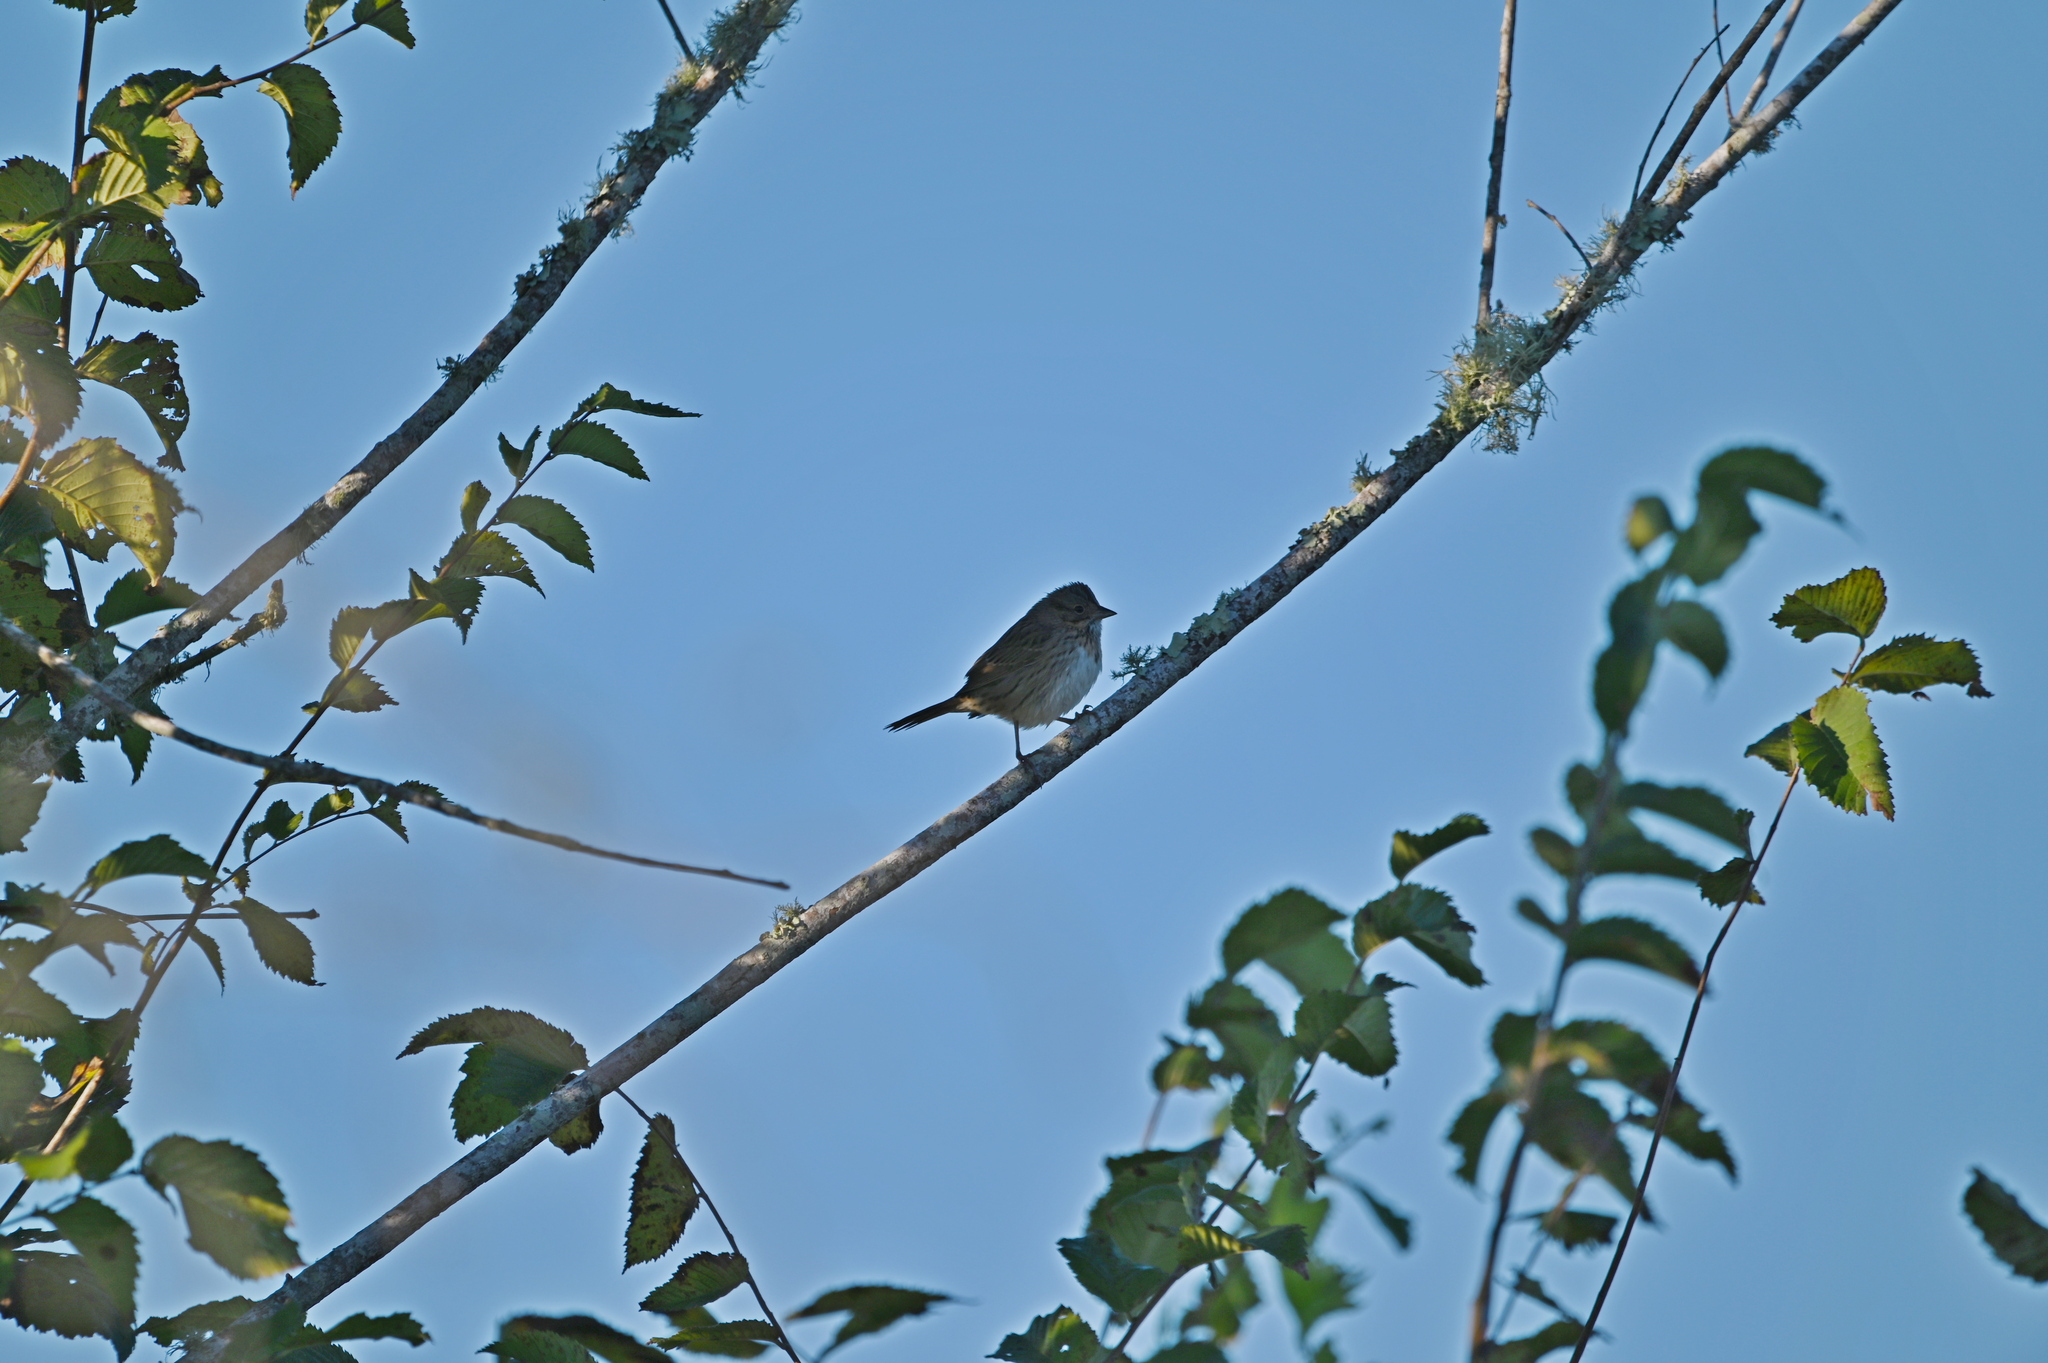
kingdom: Animalia
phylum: Chordata
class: Aves
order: Passeriformes
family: Passerellidae
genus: Melospiza
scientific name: Melospiza lincolnii
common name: Lincoln's sparrow
